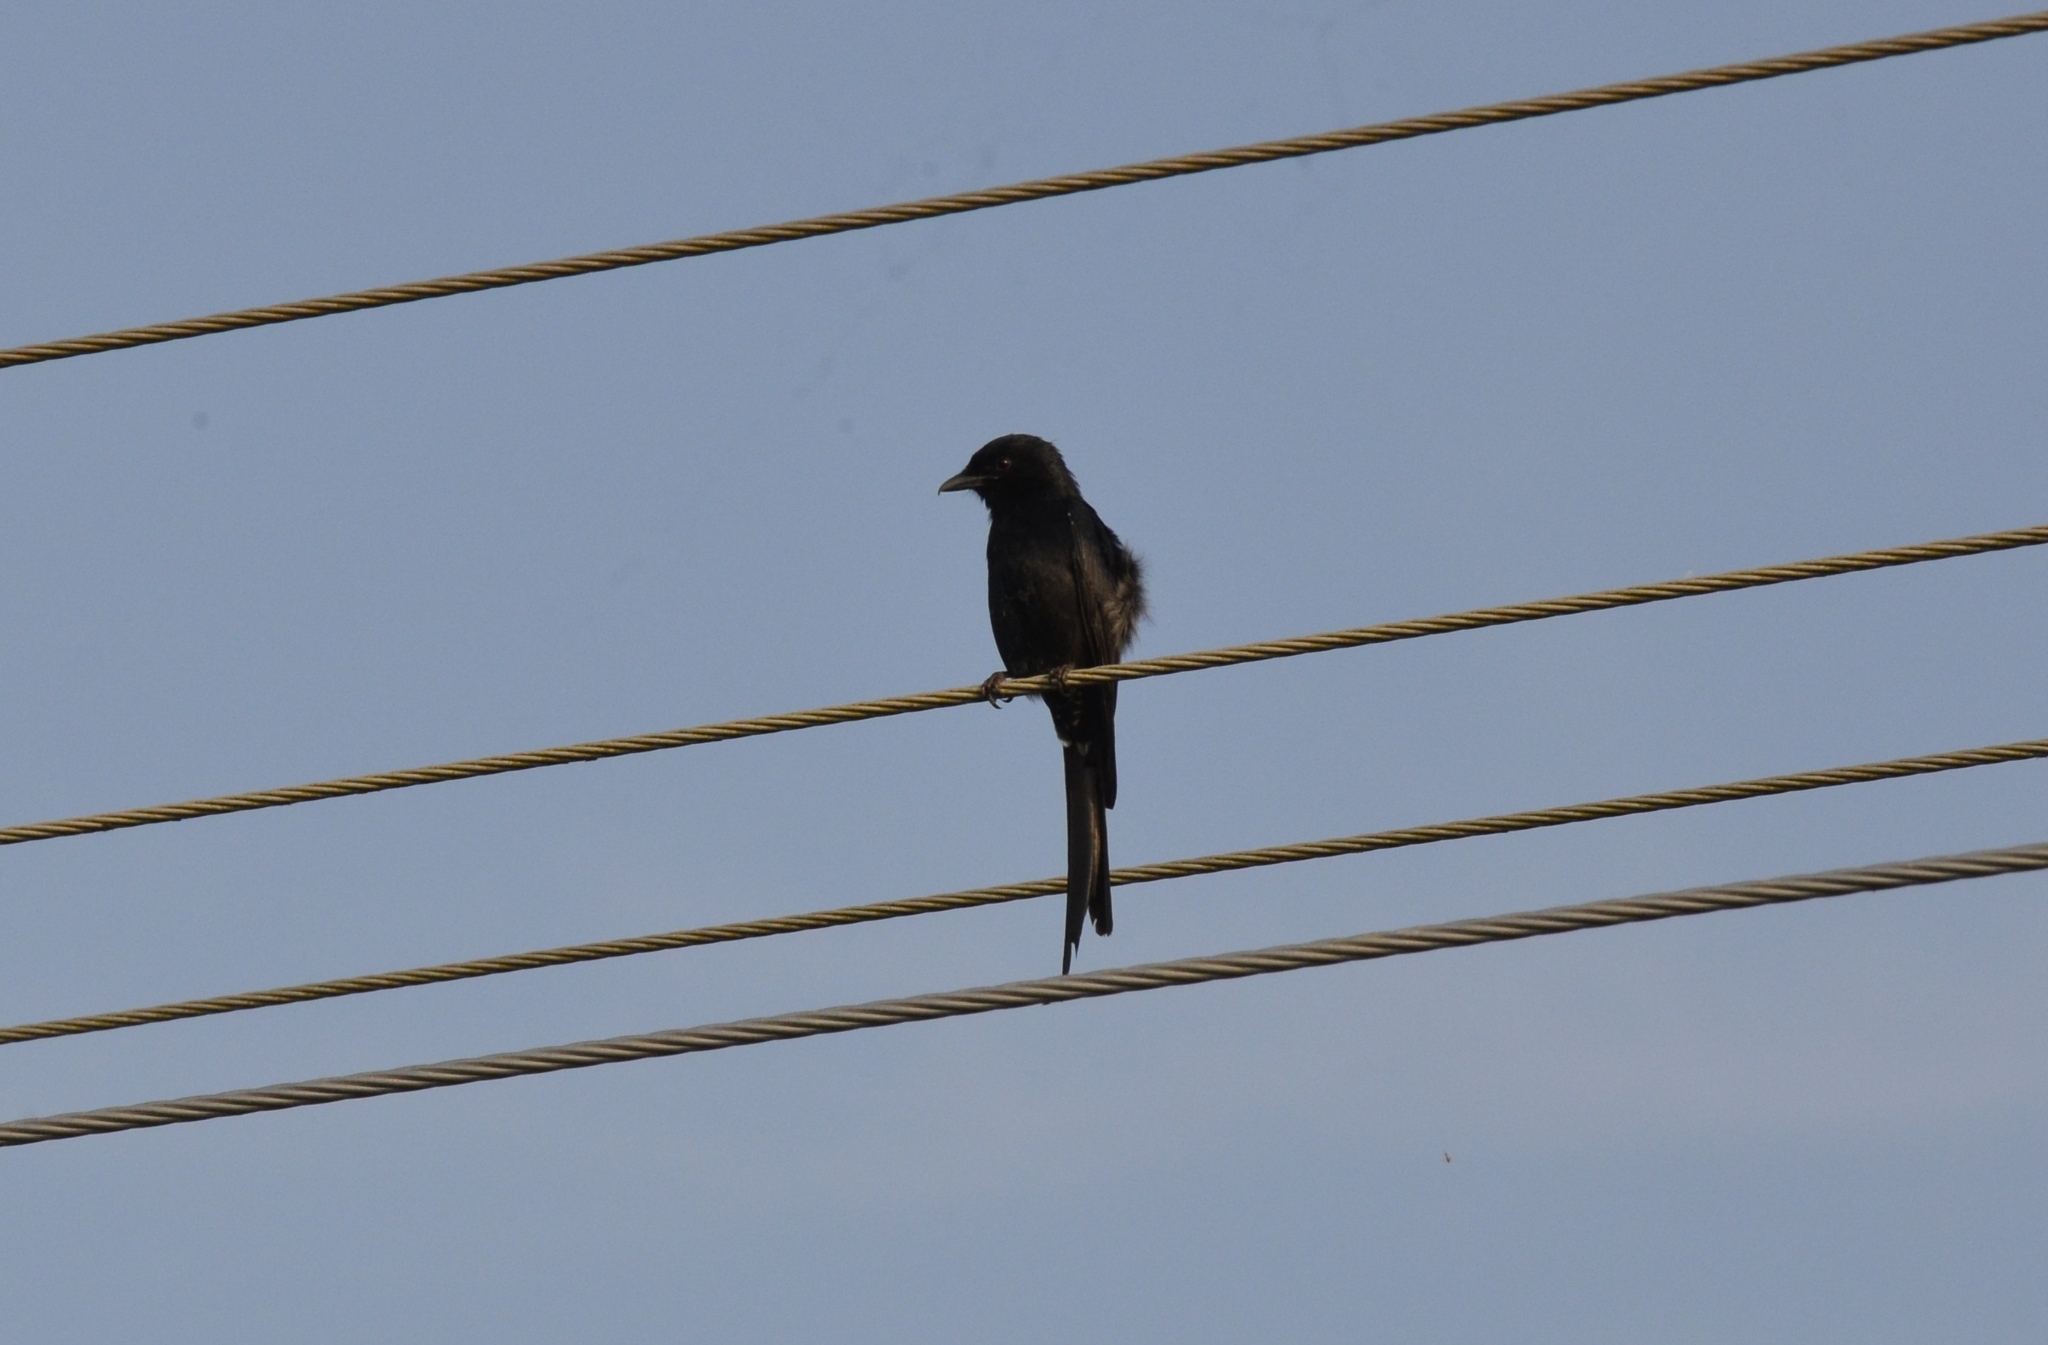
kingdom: Animalia
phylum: Chordata
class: Aves
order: Passeriformes
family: Dicruridae
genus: Dicrurus
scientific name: Dicrurus macrocercus
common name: Black drongo
